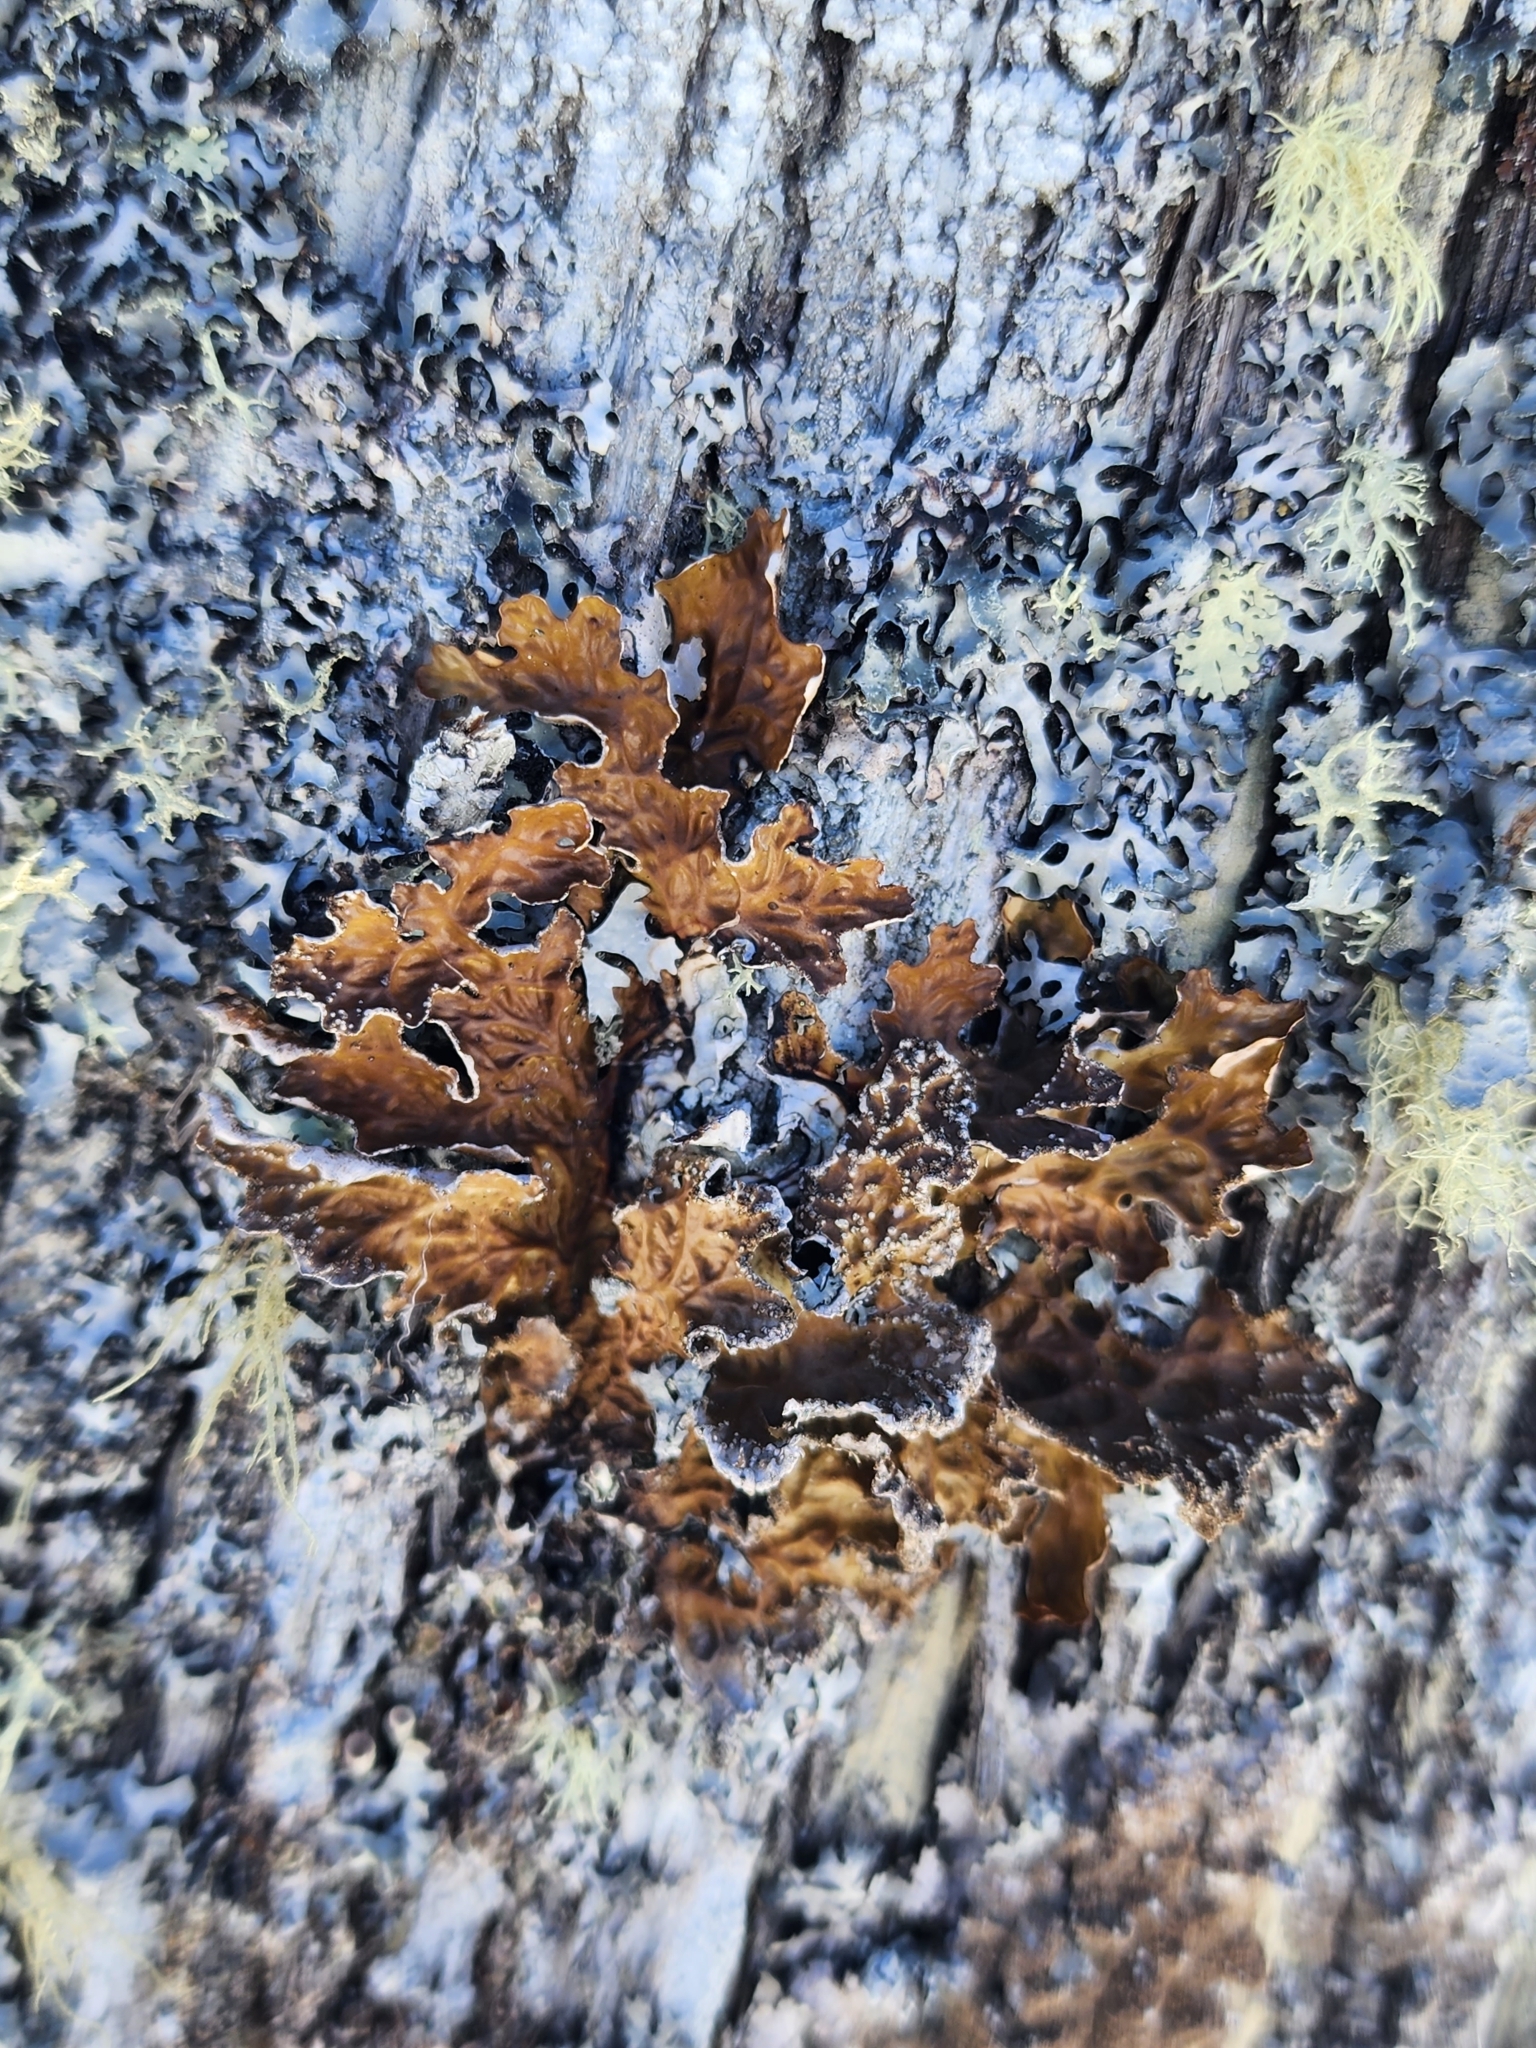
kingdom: Fungi
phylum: Ascomycota
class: Lecanoromycetes
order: Peltigerales
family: Lobariaceae
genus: Lobaria
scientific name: Lobaria pulmonaria
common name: Lungwort
